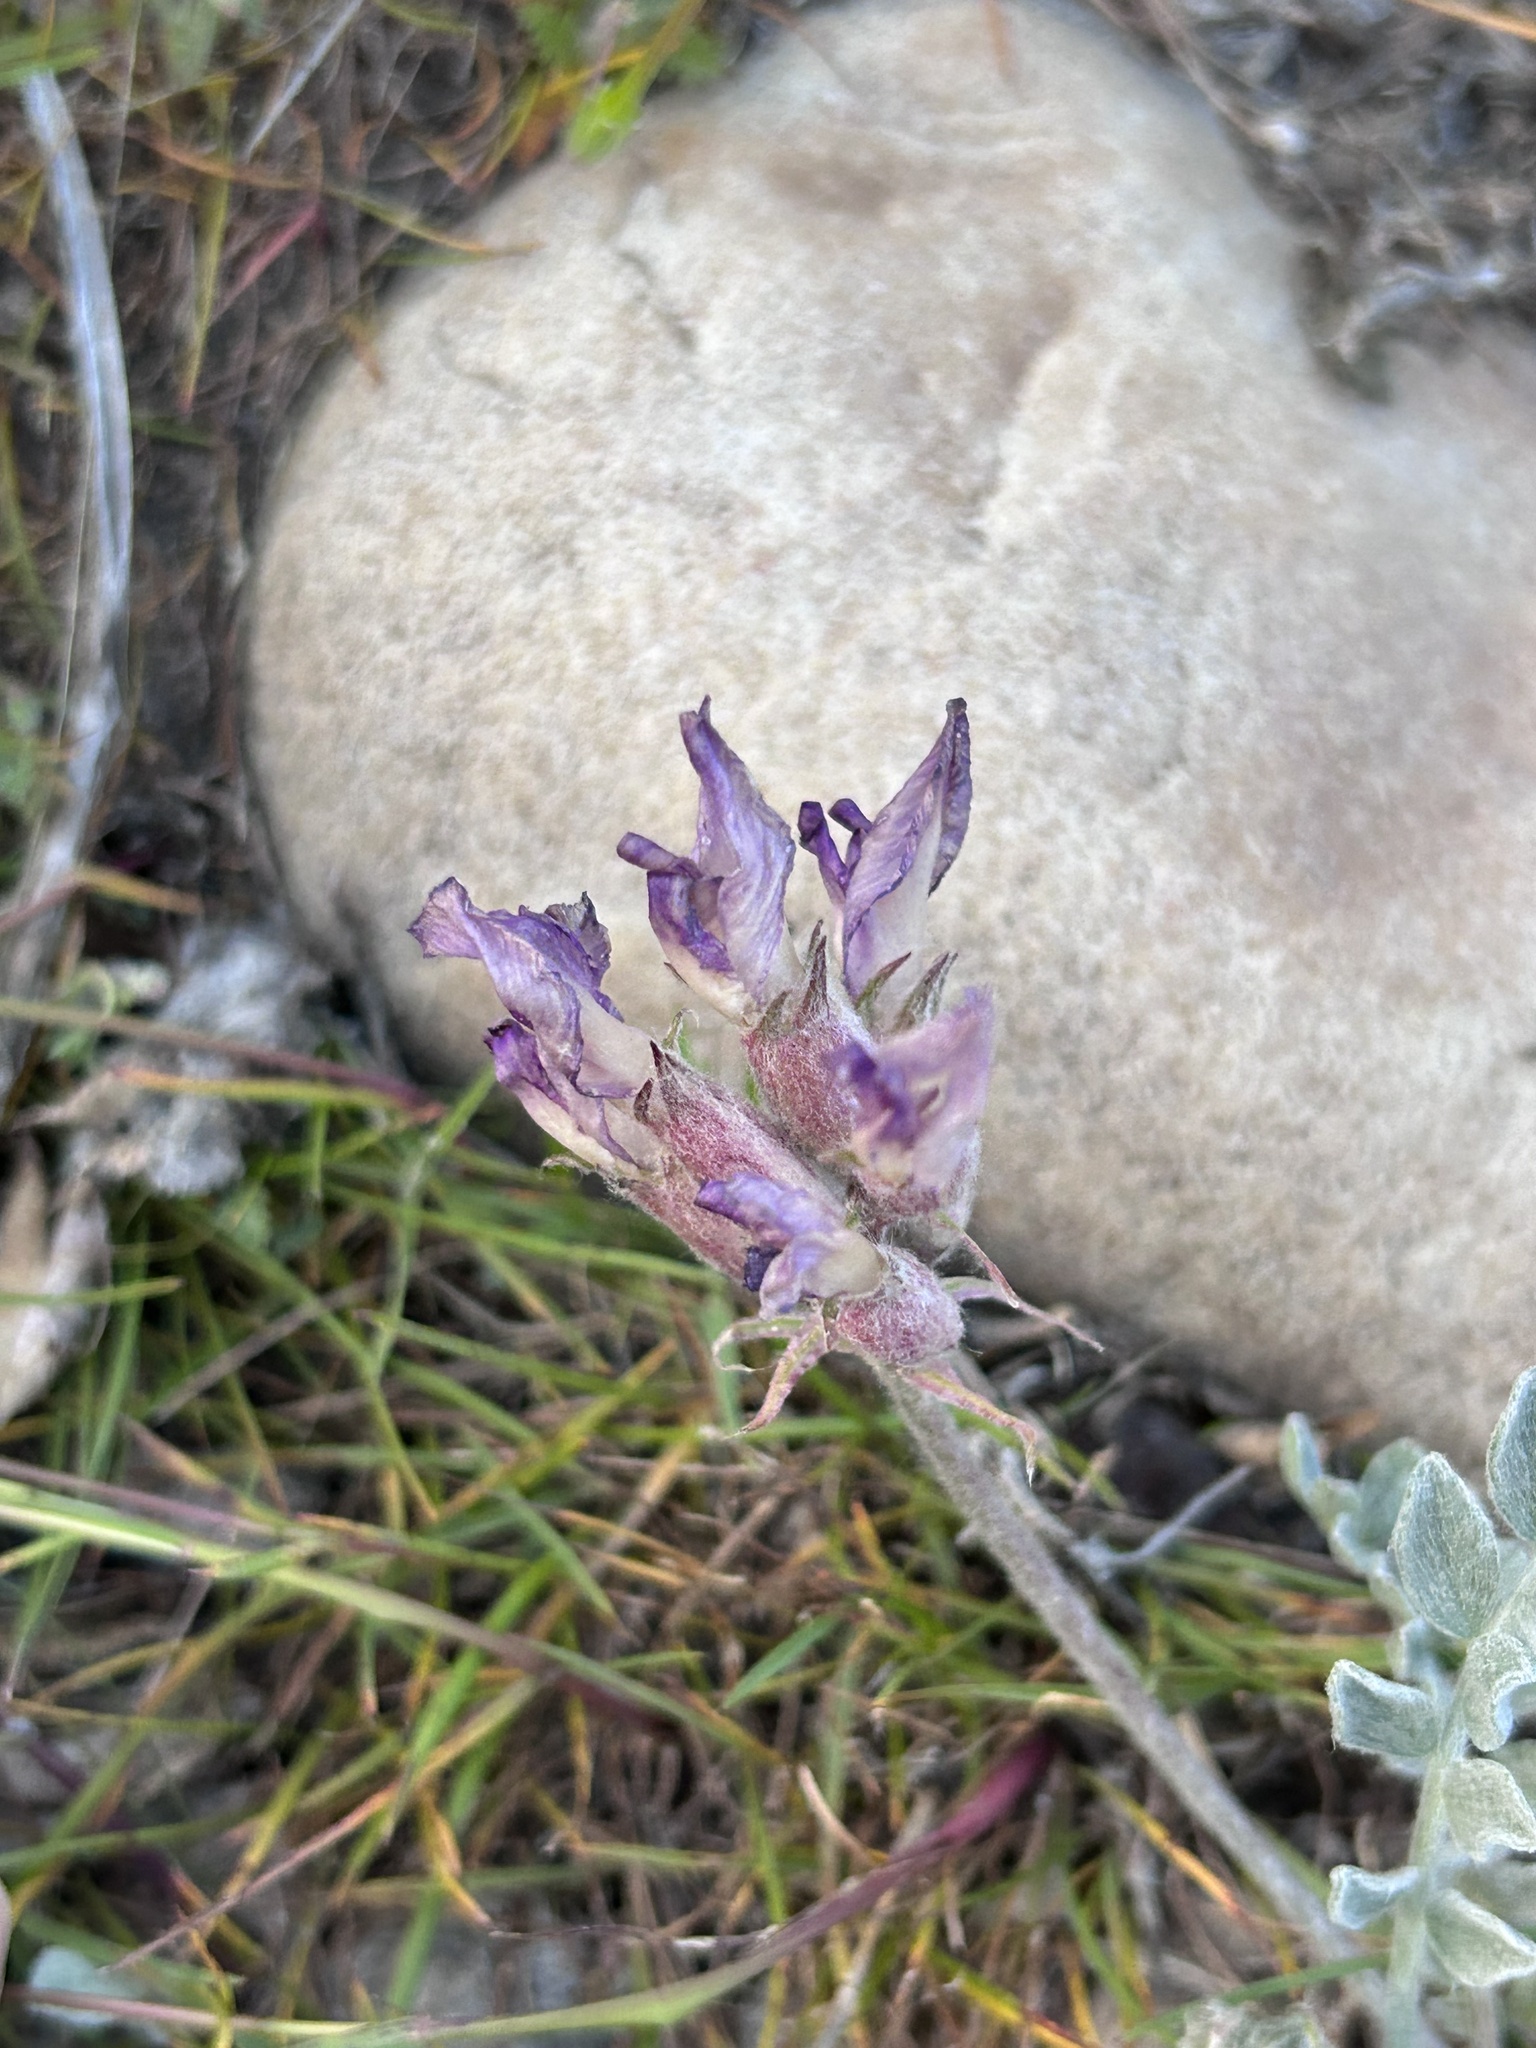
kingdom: Plantae
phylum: Tracheophyta
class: Magnoliopsida
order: Fabales
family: Fabaceae
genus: Astragalus
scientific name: Astragalus utahensis
